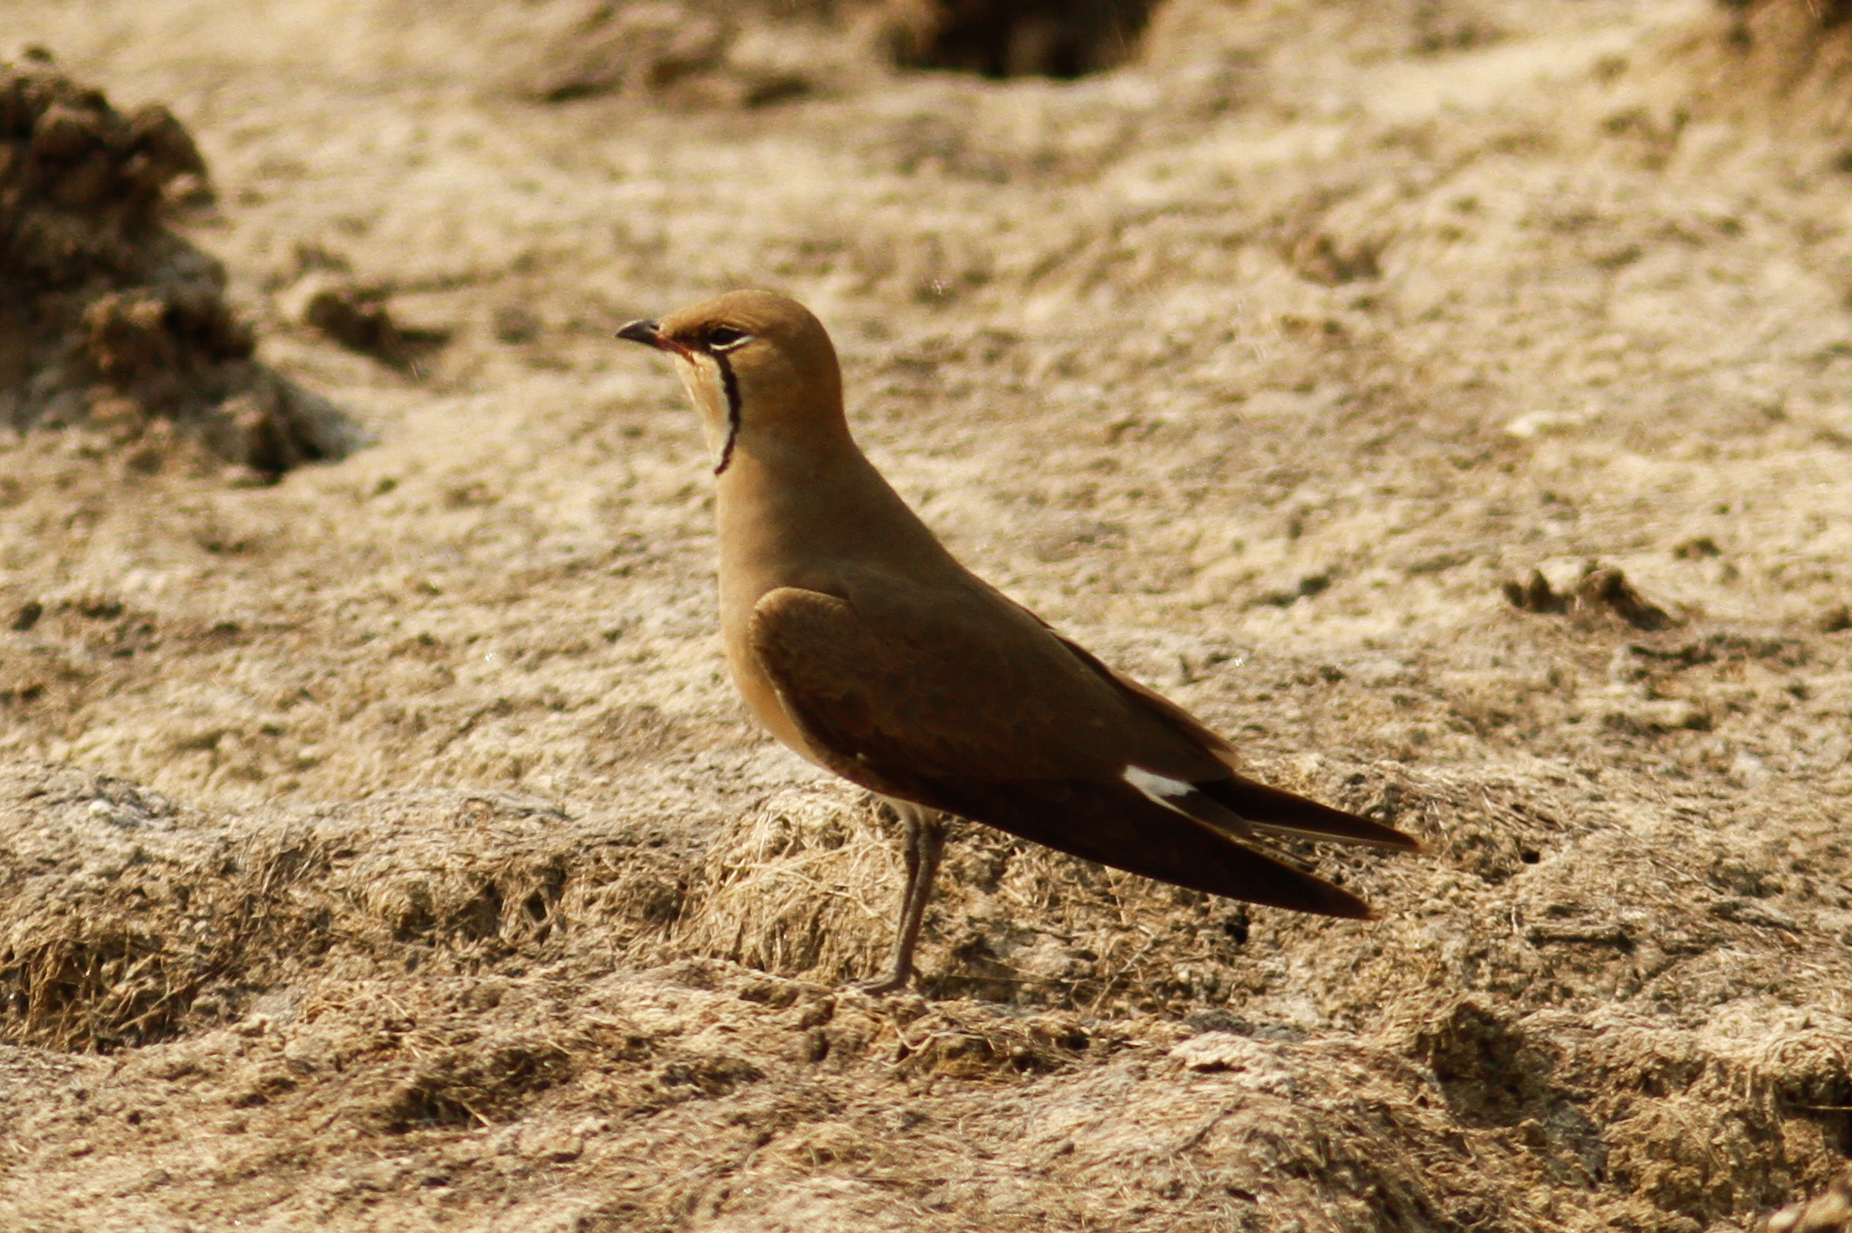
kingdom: Animalia
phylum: Chordata
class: Aves
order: Charadriiformes
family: Glareolidae
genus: Glareola
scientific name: Glareola maldivarum
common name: Oriental pratincole
